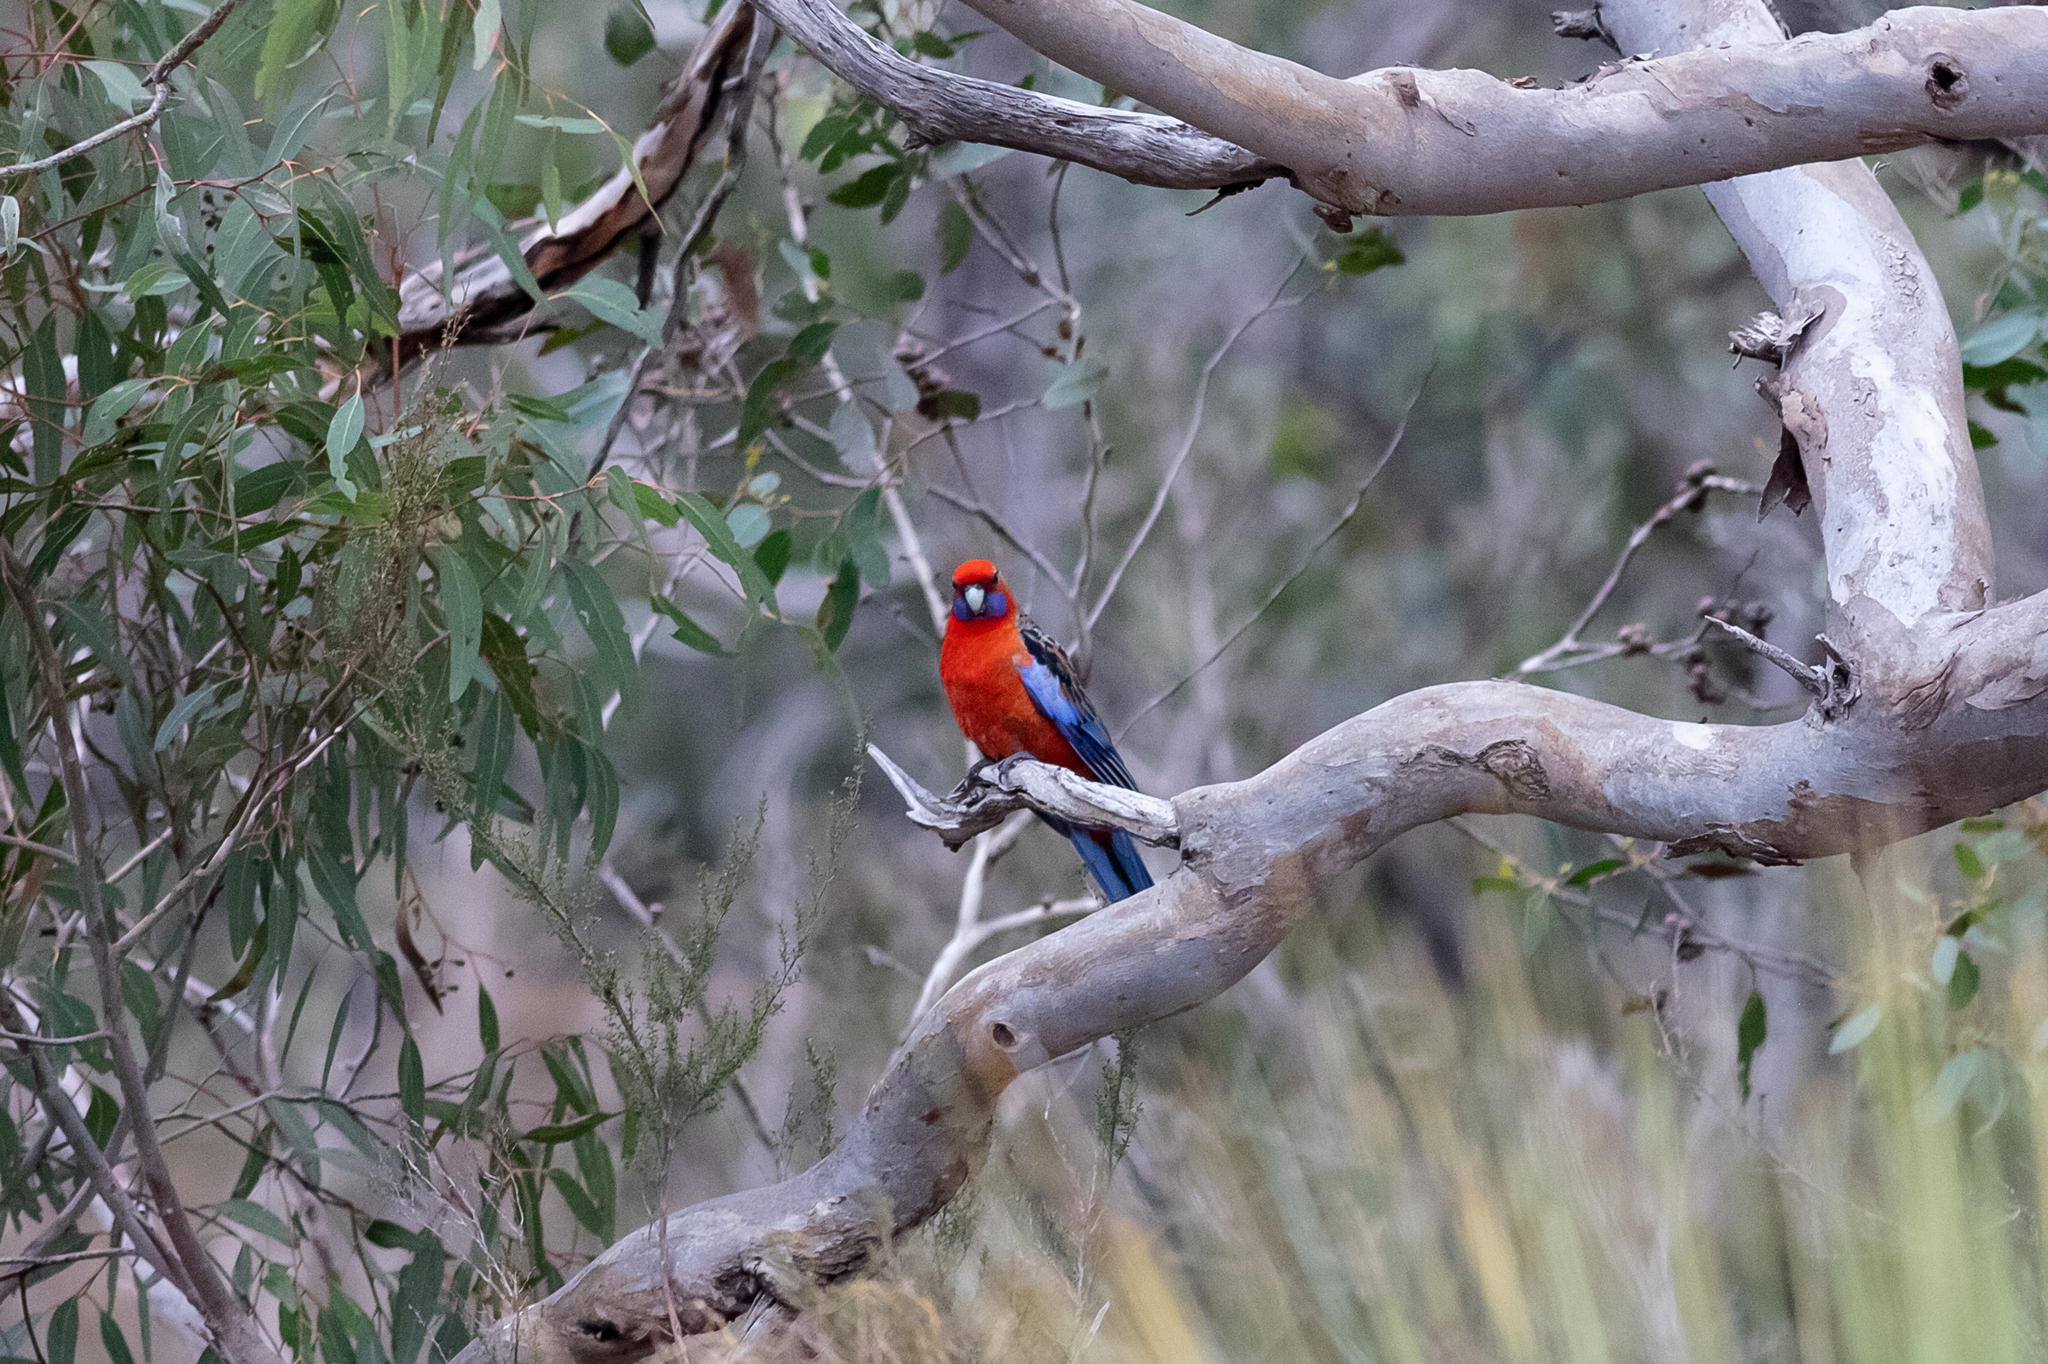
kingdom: Animalia
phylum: Chordata
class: Aves
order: Psittaciformes
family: Psittacidae
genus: Platycercus
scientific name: Platycercus elegans
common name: Crimson rosella
